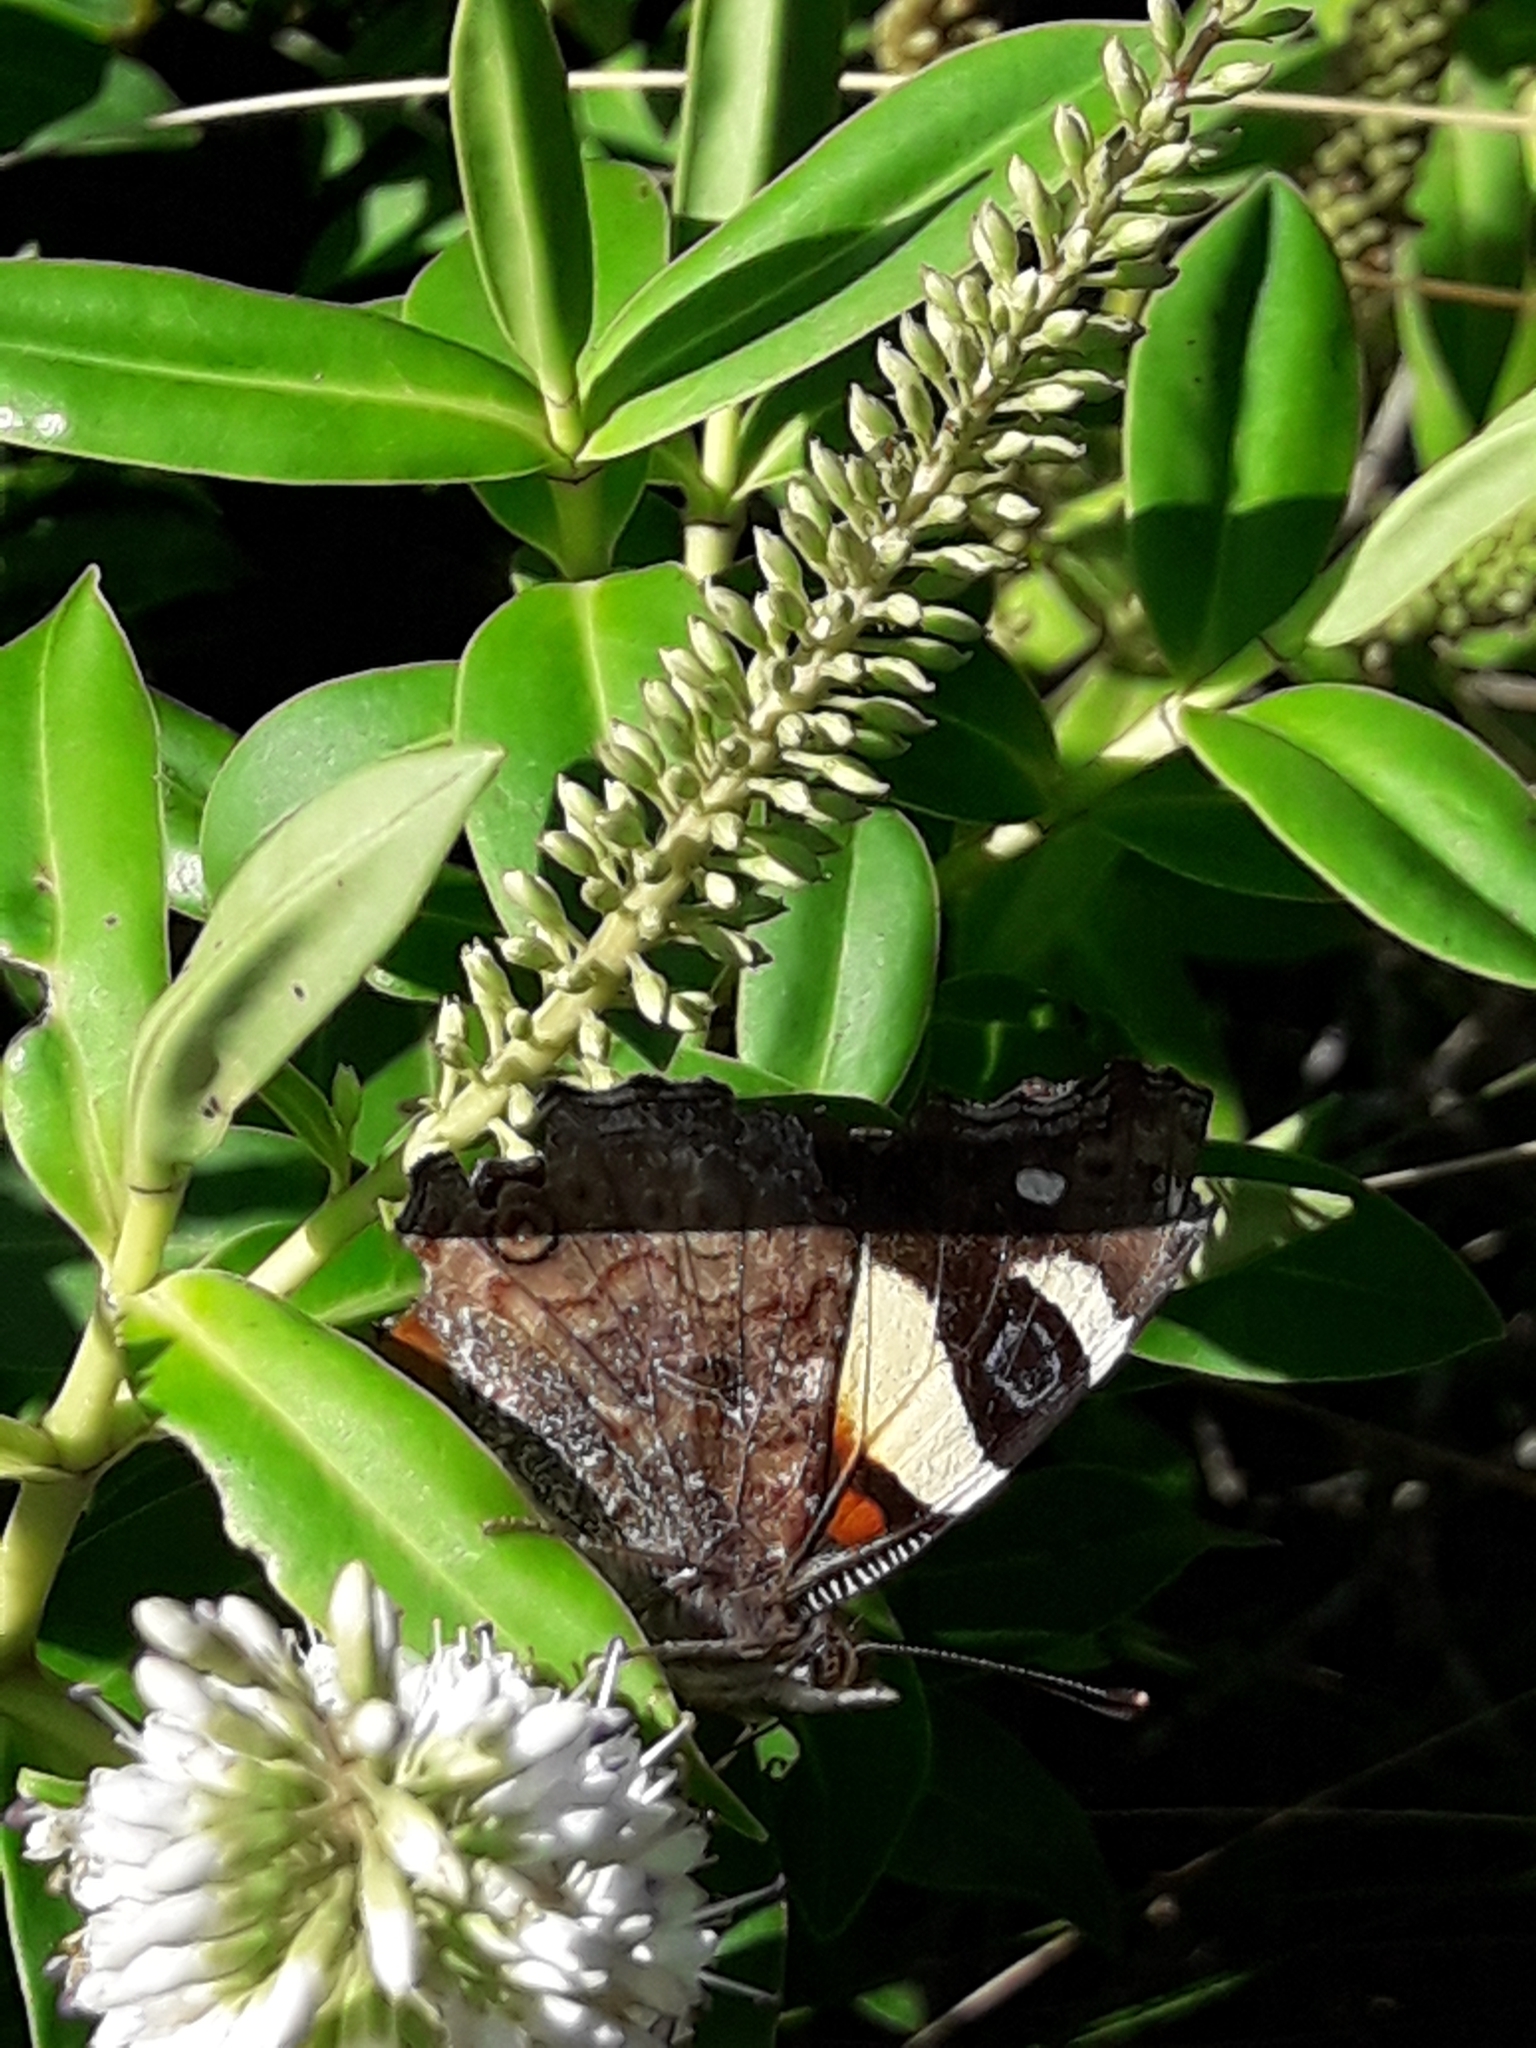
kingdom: Animalia
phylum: Arthropoda
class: Insecta
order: Lepidoptera
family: Nymphalidae
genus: Vanessa
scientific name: Vanessa itea
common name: Yellow admiral
